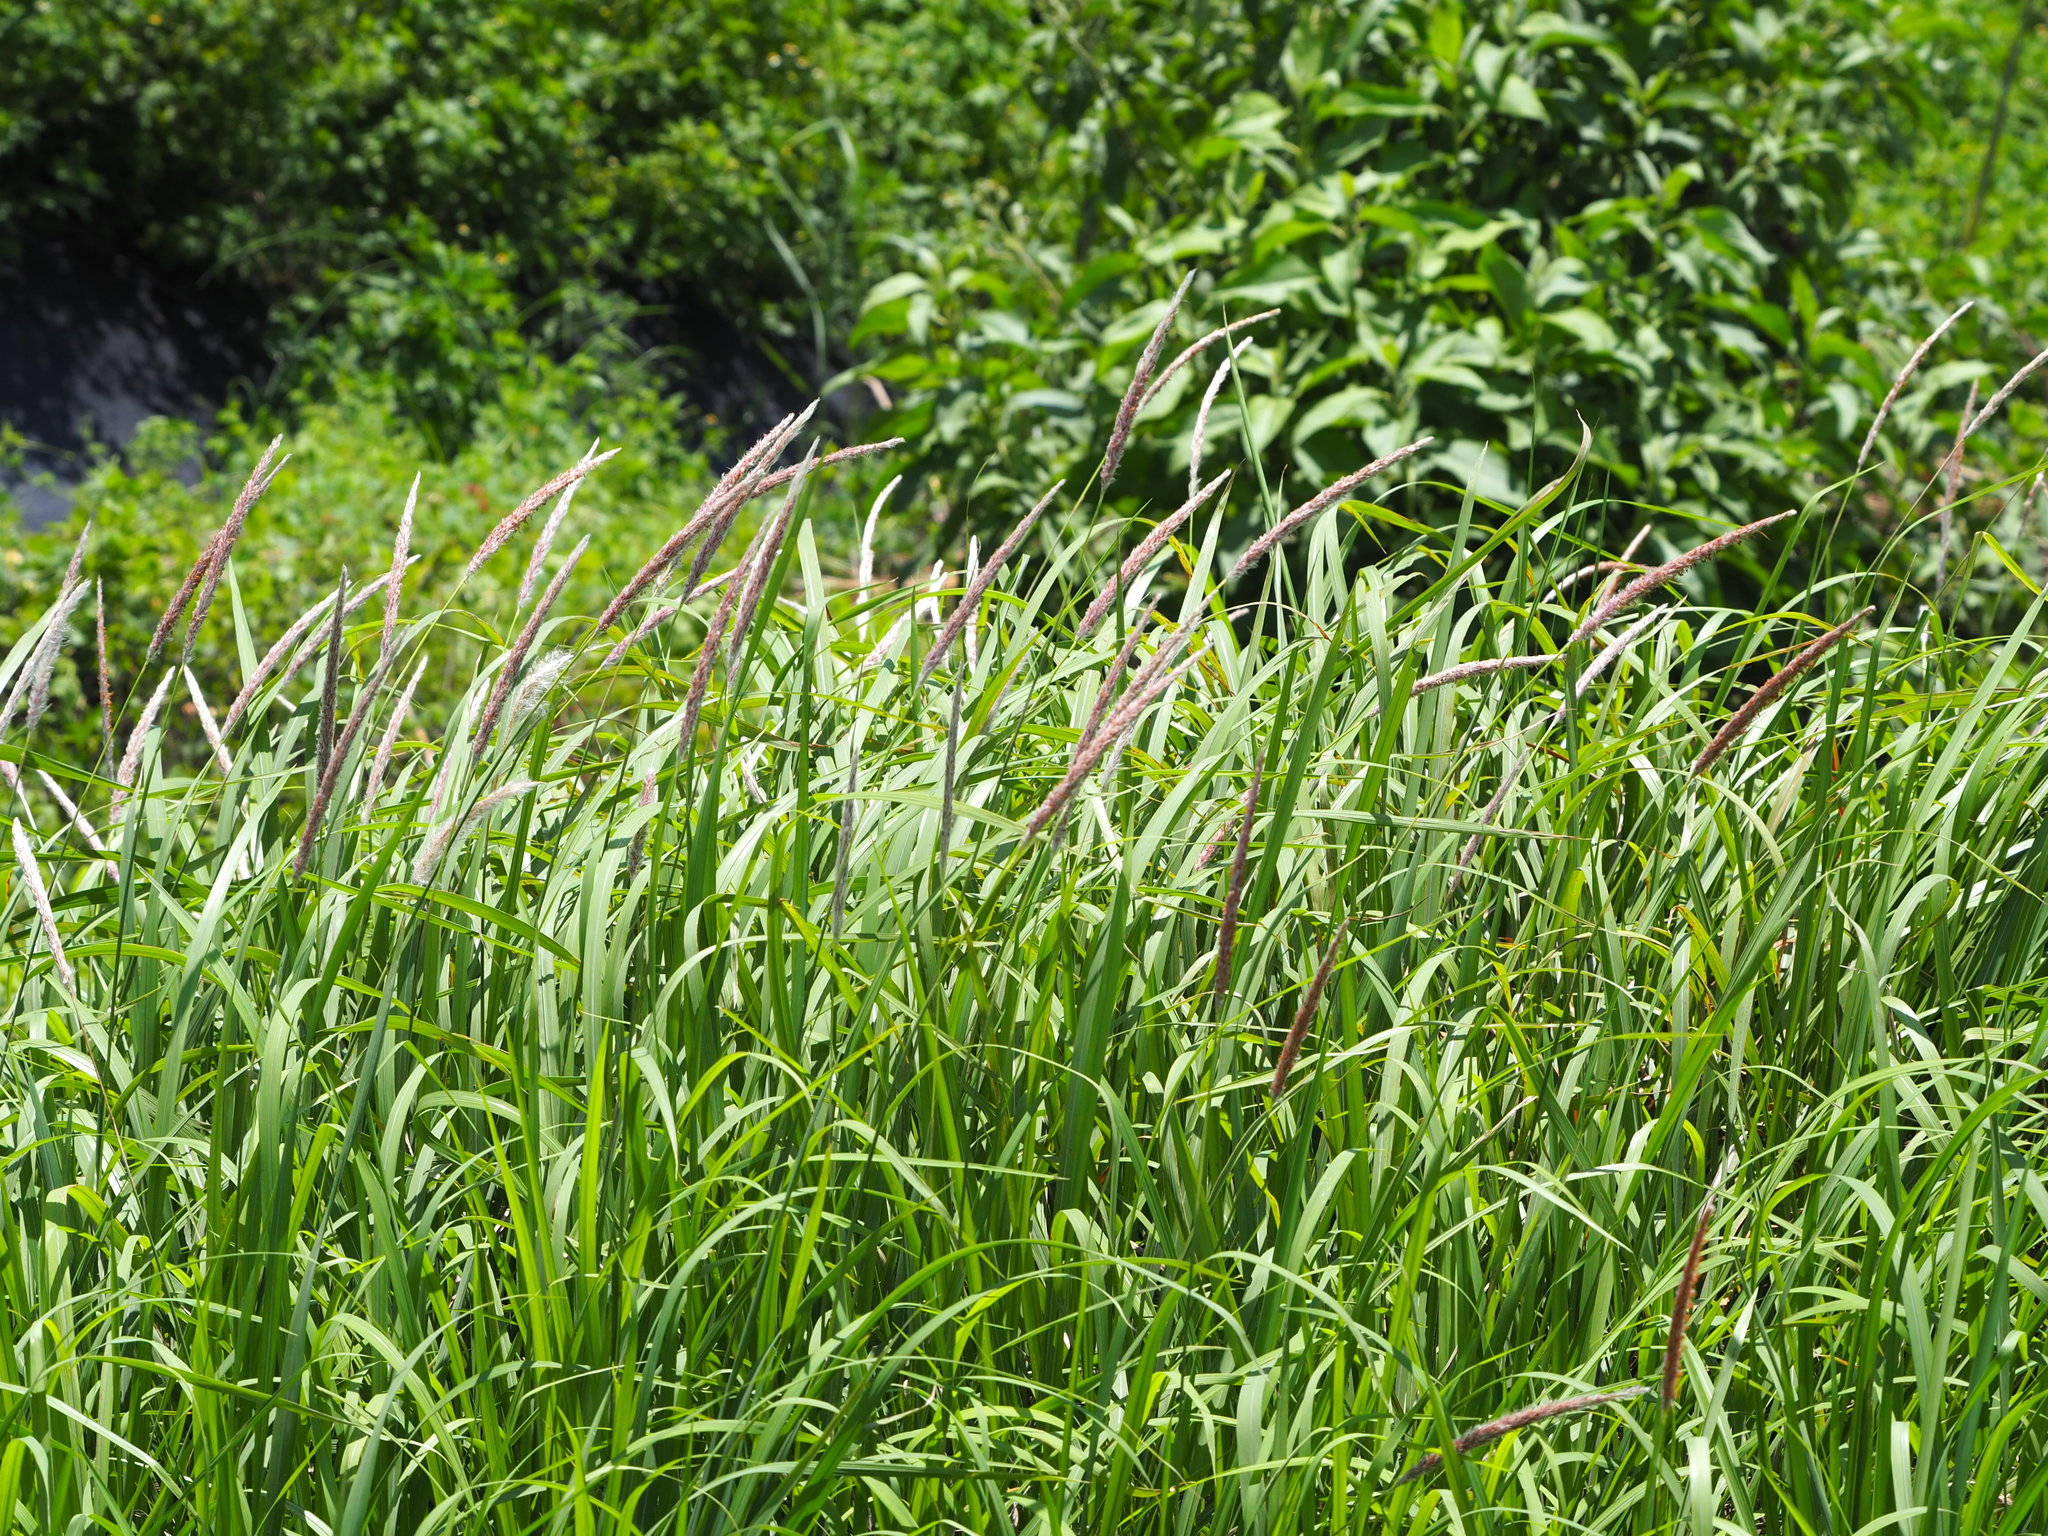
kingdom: Plantae
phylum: Tracheophyta
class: Liliopsida
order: Poales
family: Poaceae
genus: Imperata
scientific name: Imperata cylindrica
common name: Cogongrass
